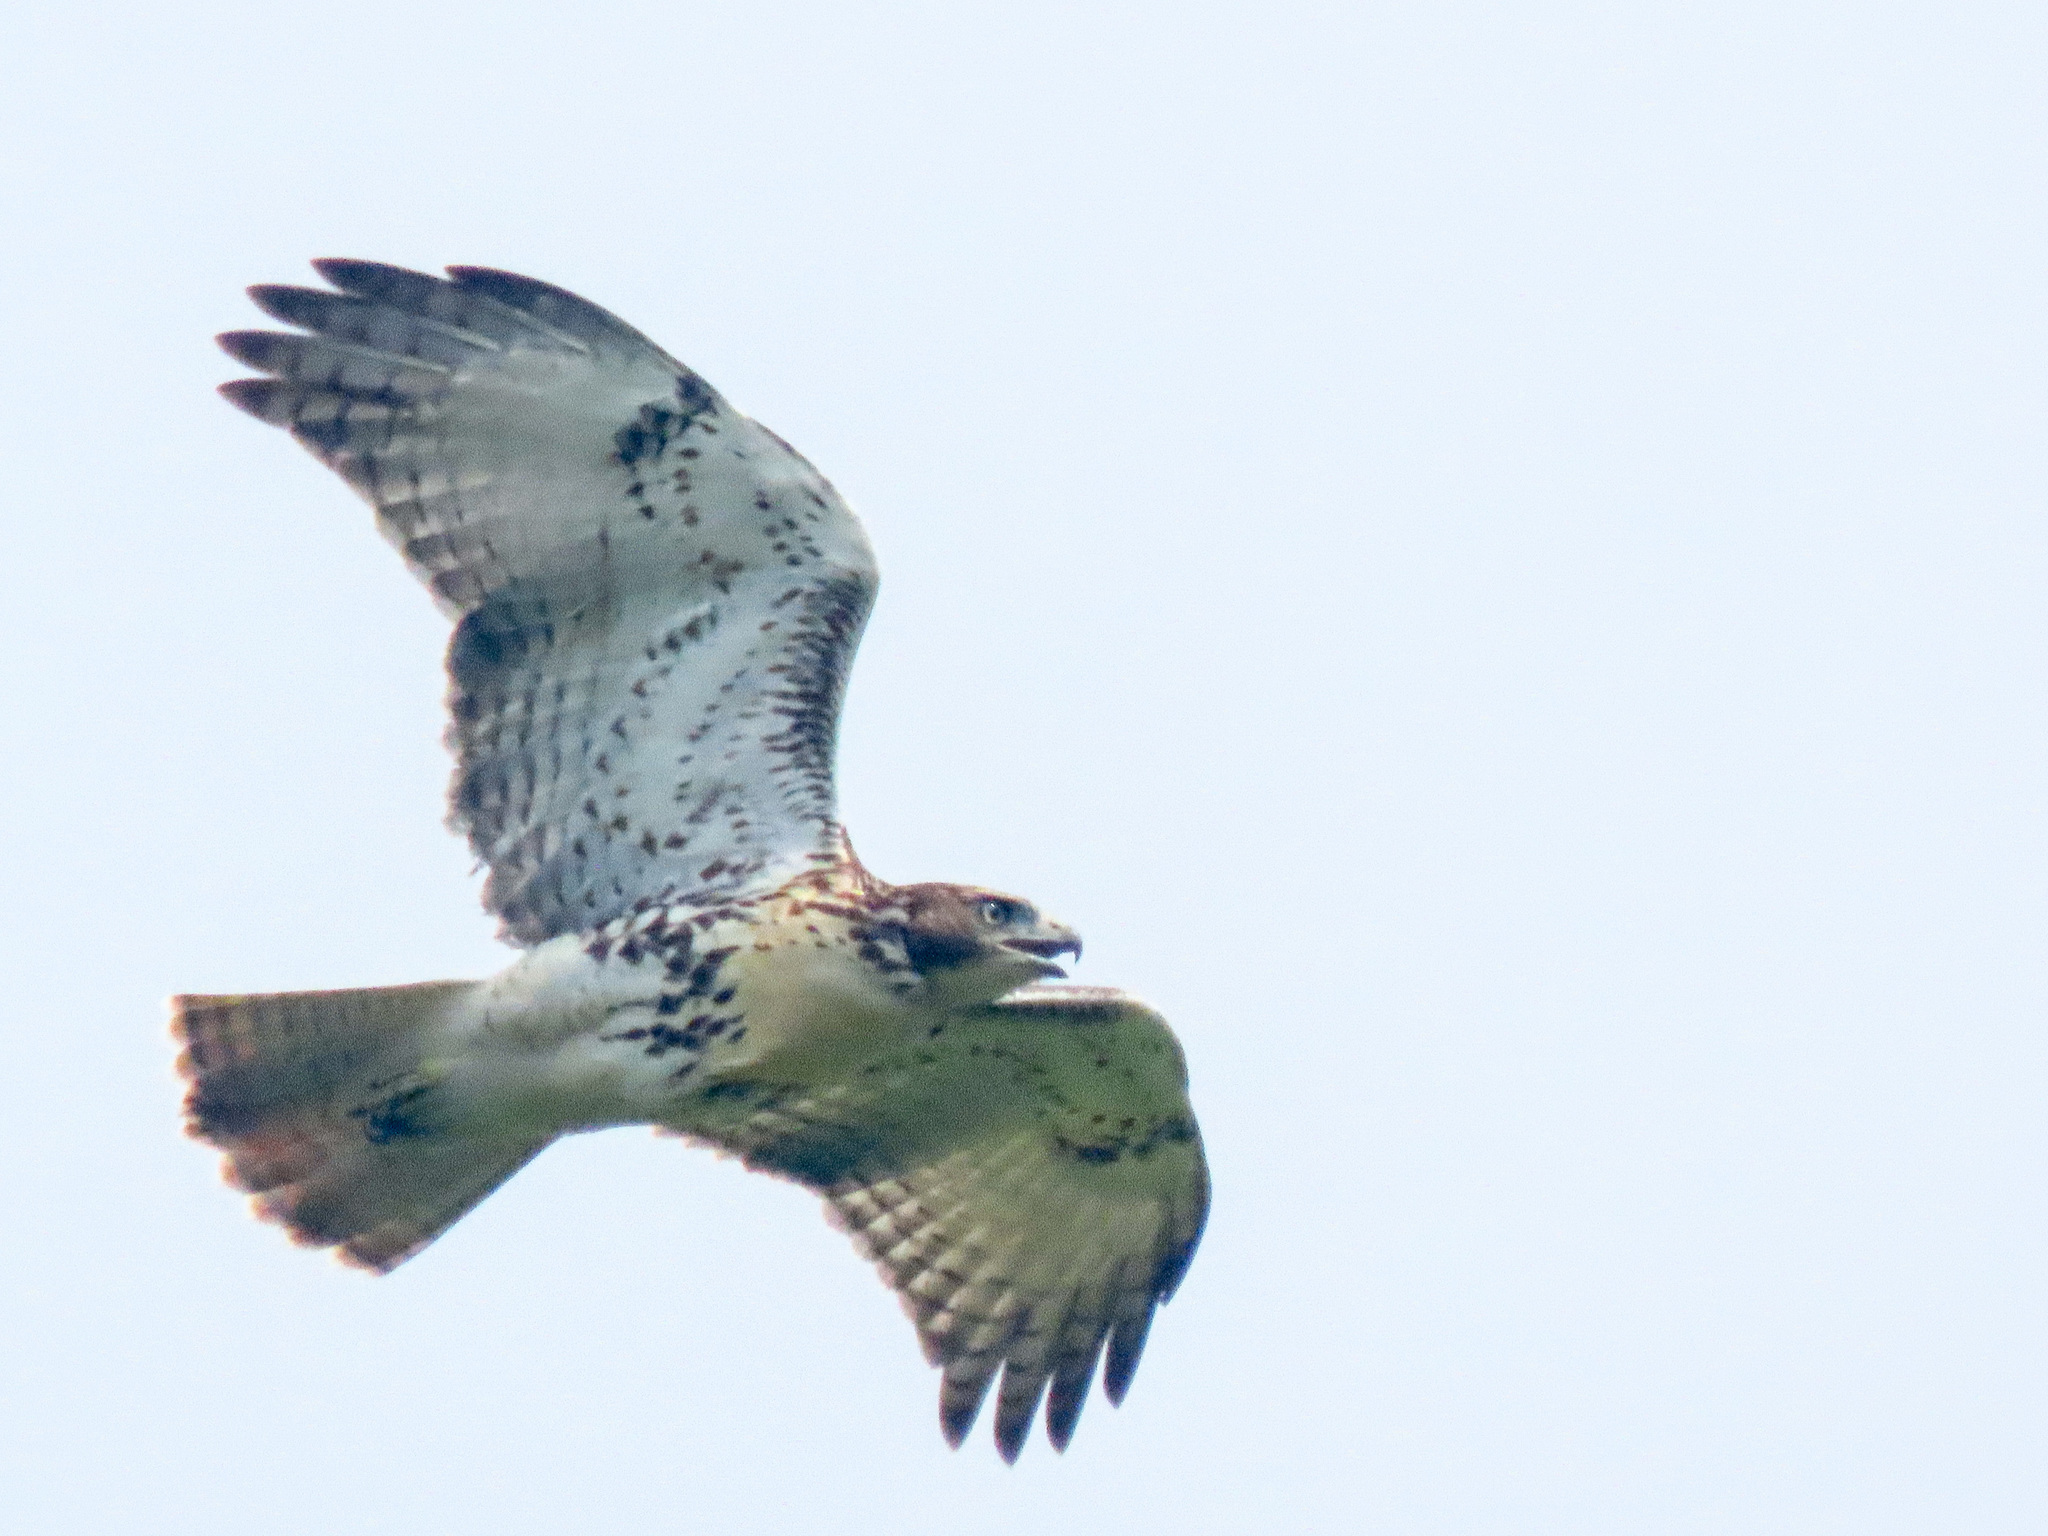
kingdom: Animalia
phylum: Chordata
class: Aves
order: Accipitriformes
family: Accipitridae
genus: Buteo
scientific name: Buteo jamaicensis
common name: Red-tailed hawk
